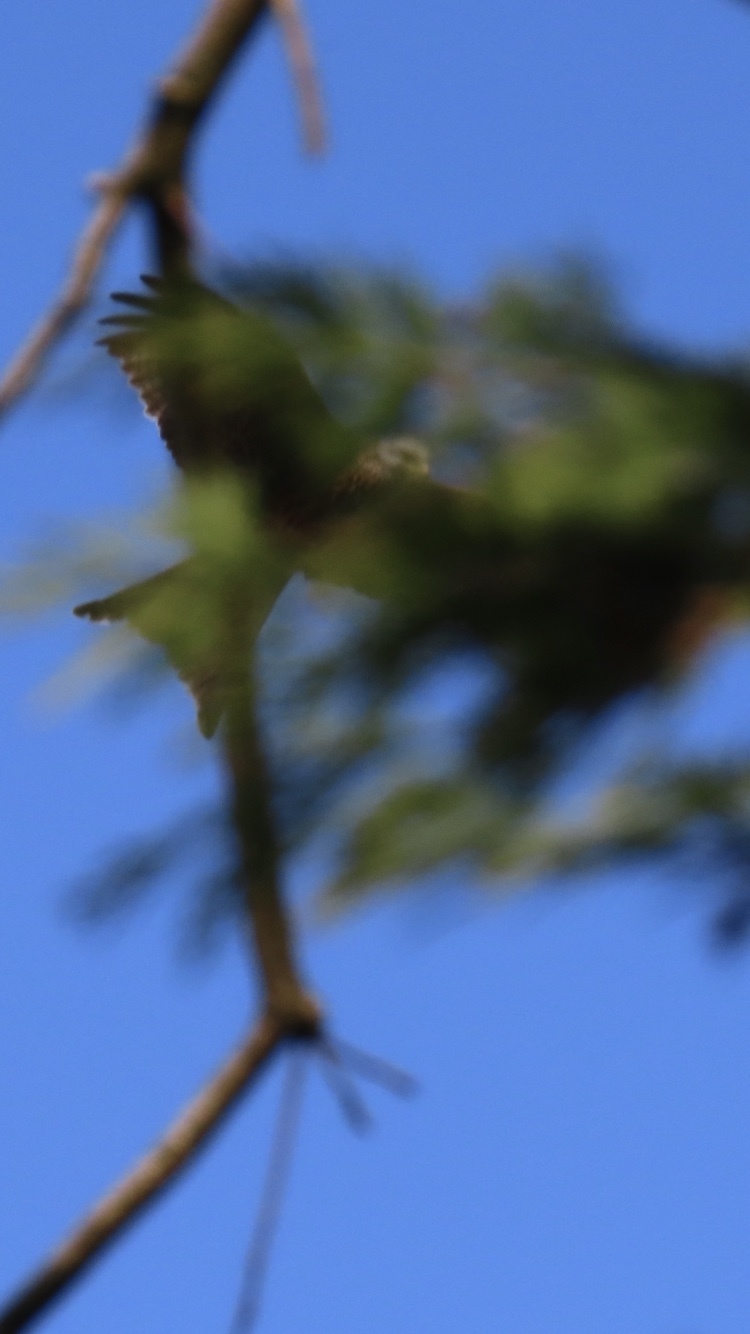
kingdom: Animalia
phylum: Chordata
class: Aves
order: Accipitriformes
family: Accipitridae
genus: Milvus
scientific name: Milvus milvus
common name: Red kite
